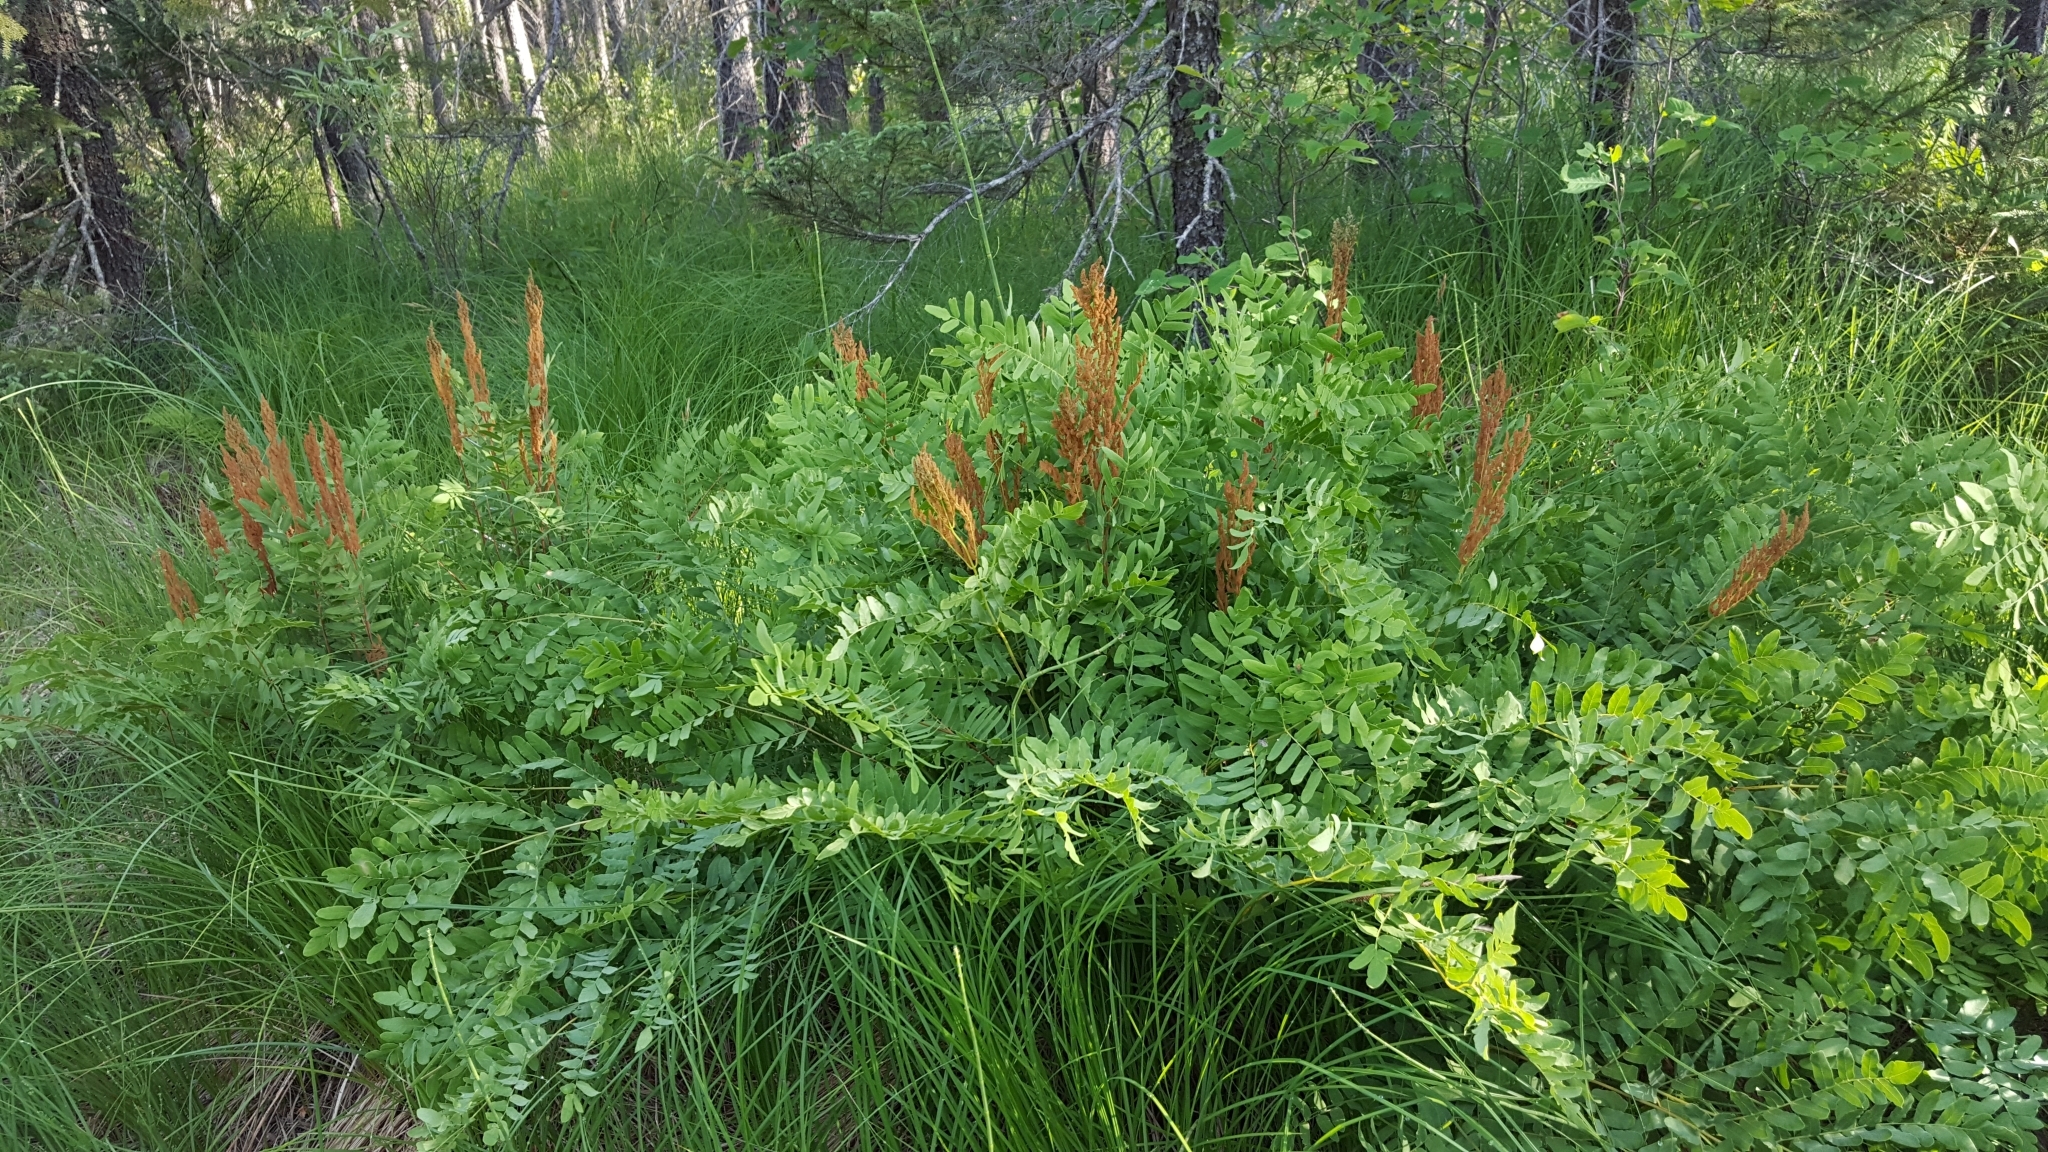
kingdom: Plantae
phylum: Tracheophyta
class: Polypodiopsida
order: Osmundales
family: Osmundaceae
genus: Osmunda
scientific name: Osmunda spectabilis
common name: American royal fern
